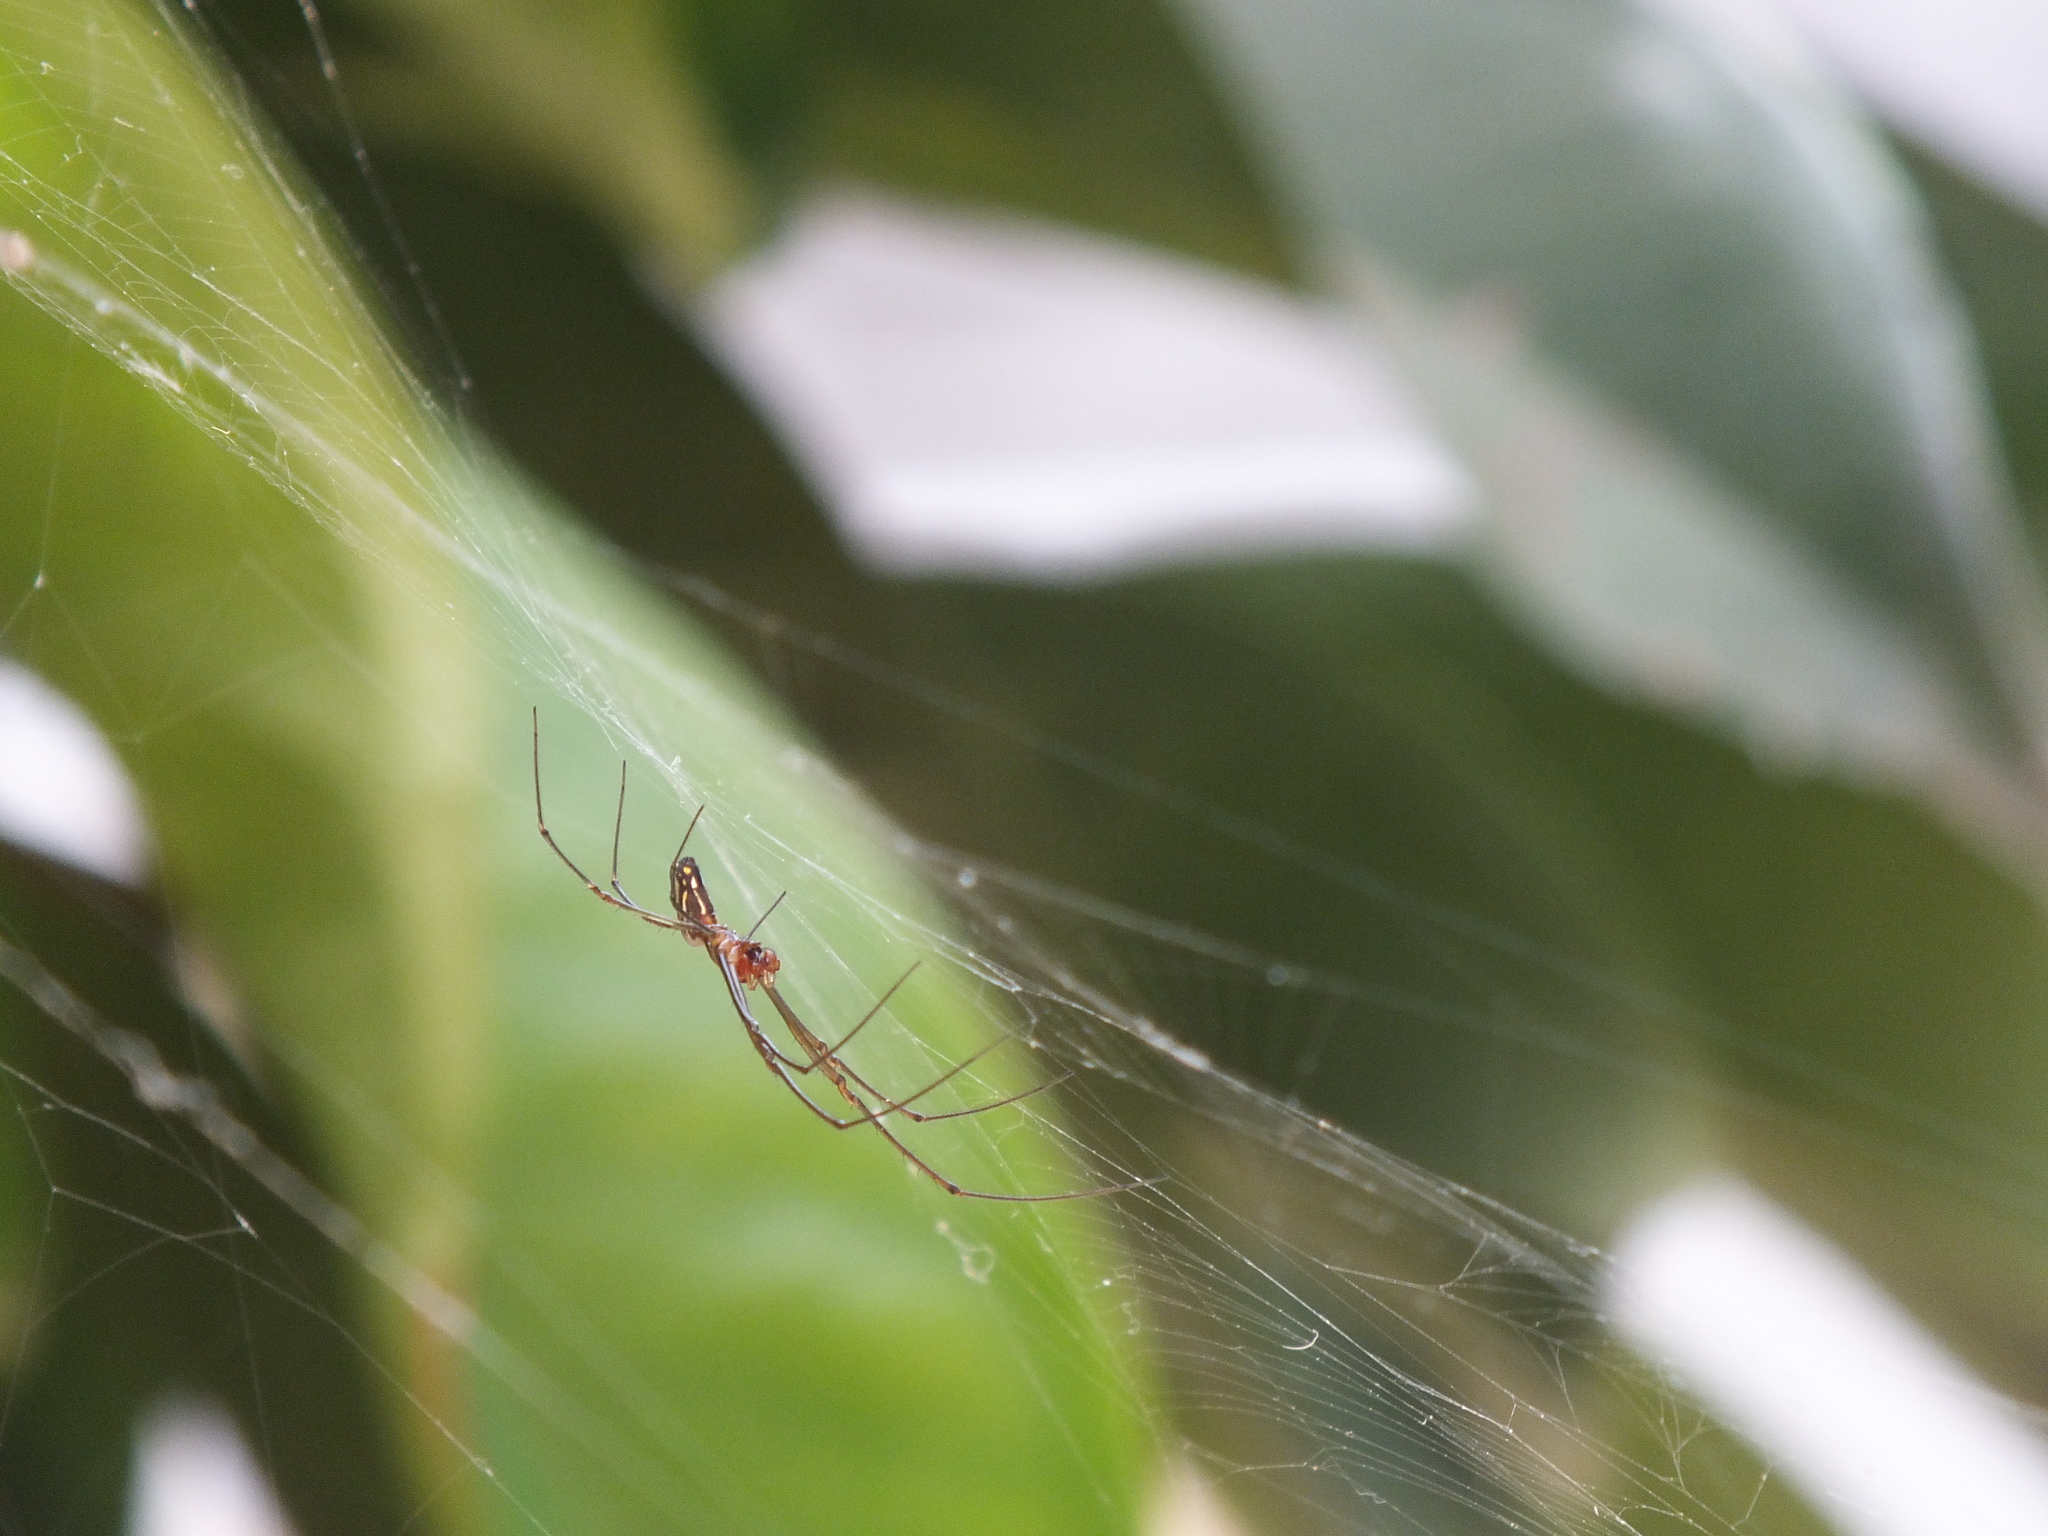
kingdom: Animalia
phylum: Arthropoda
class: Arachnida
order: Araneae
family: Tetragnathidae
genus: Leucauge
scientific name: Leucauge argyra
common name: Longjawed orb weavers
